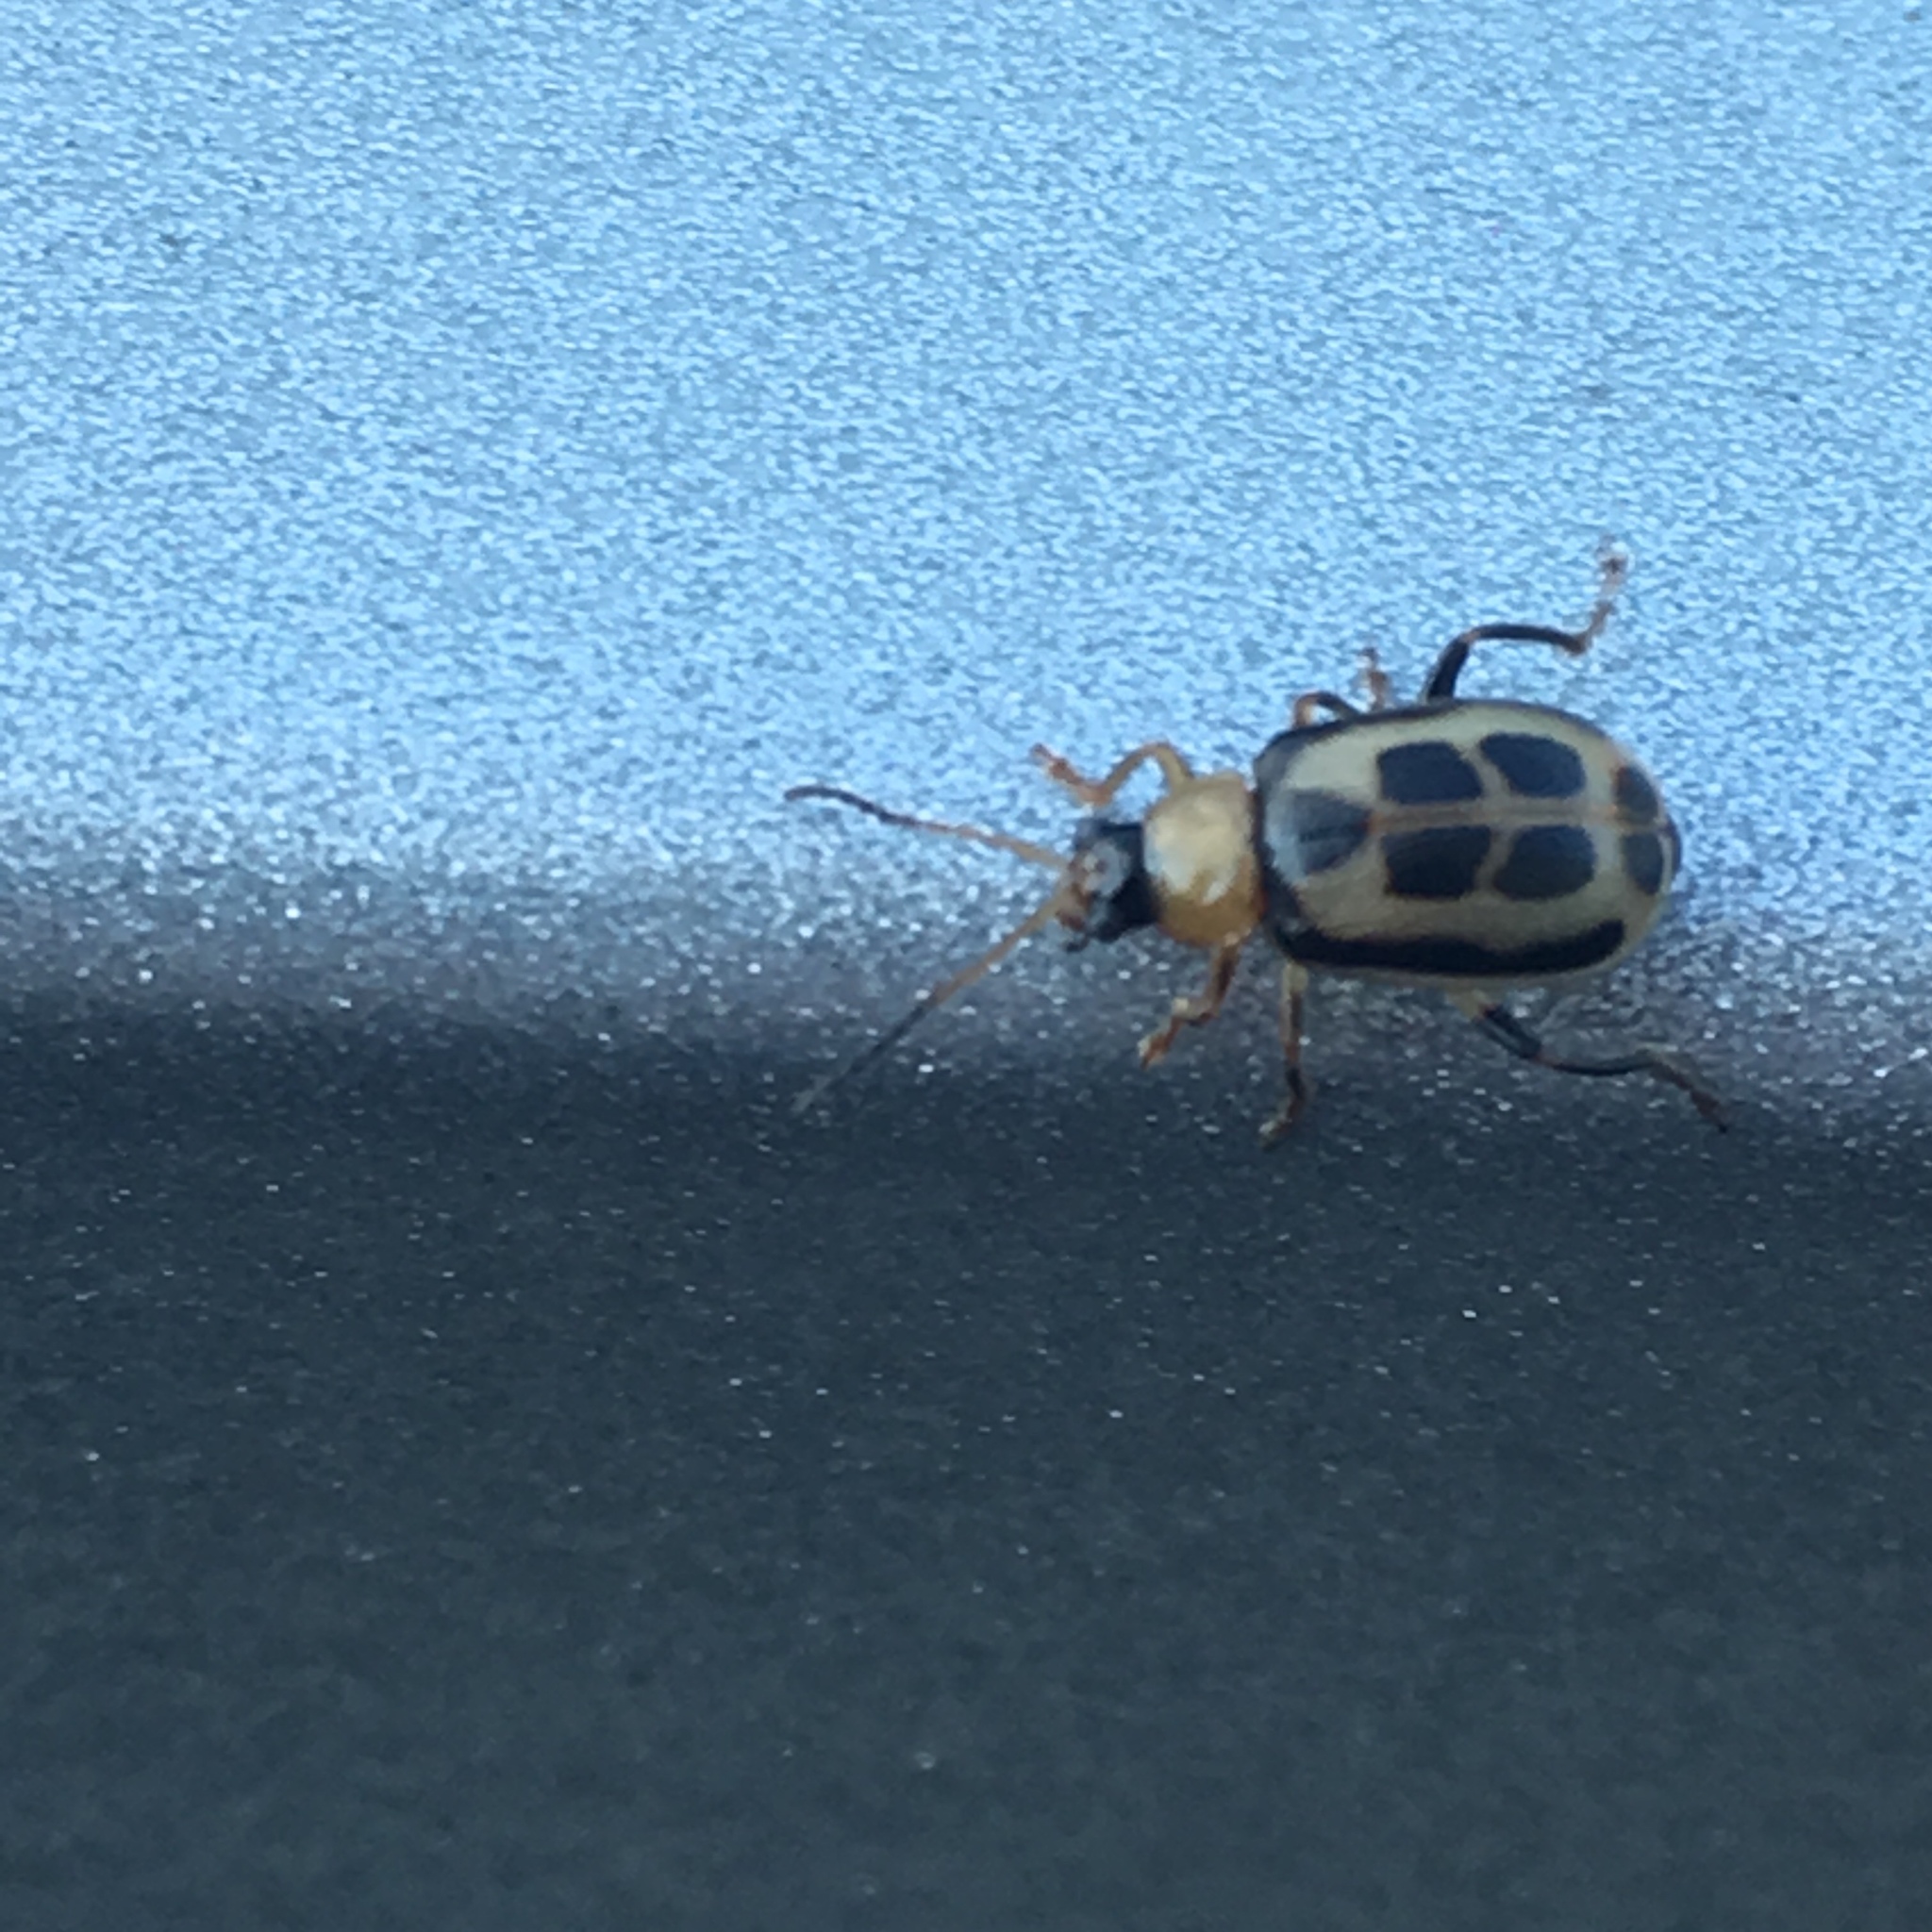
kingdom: Animalia
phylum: Arthropoda
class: Insecta
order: Coleoptera
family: Chrysomelidae
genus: Cerotoma
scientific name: Cerotoma trifurcata
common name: Bean leaf beetle
